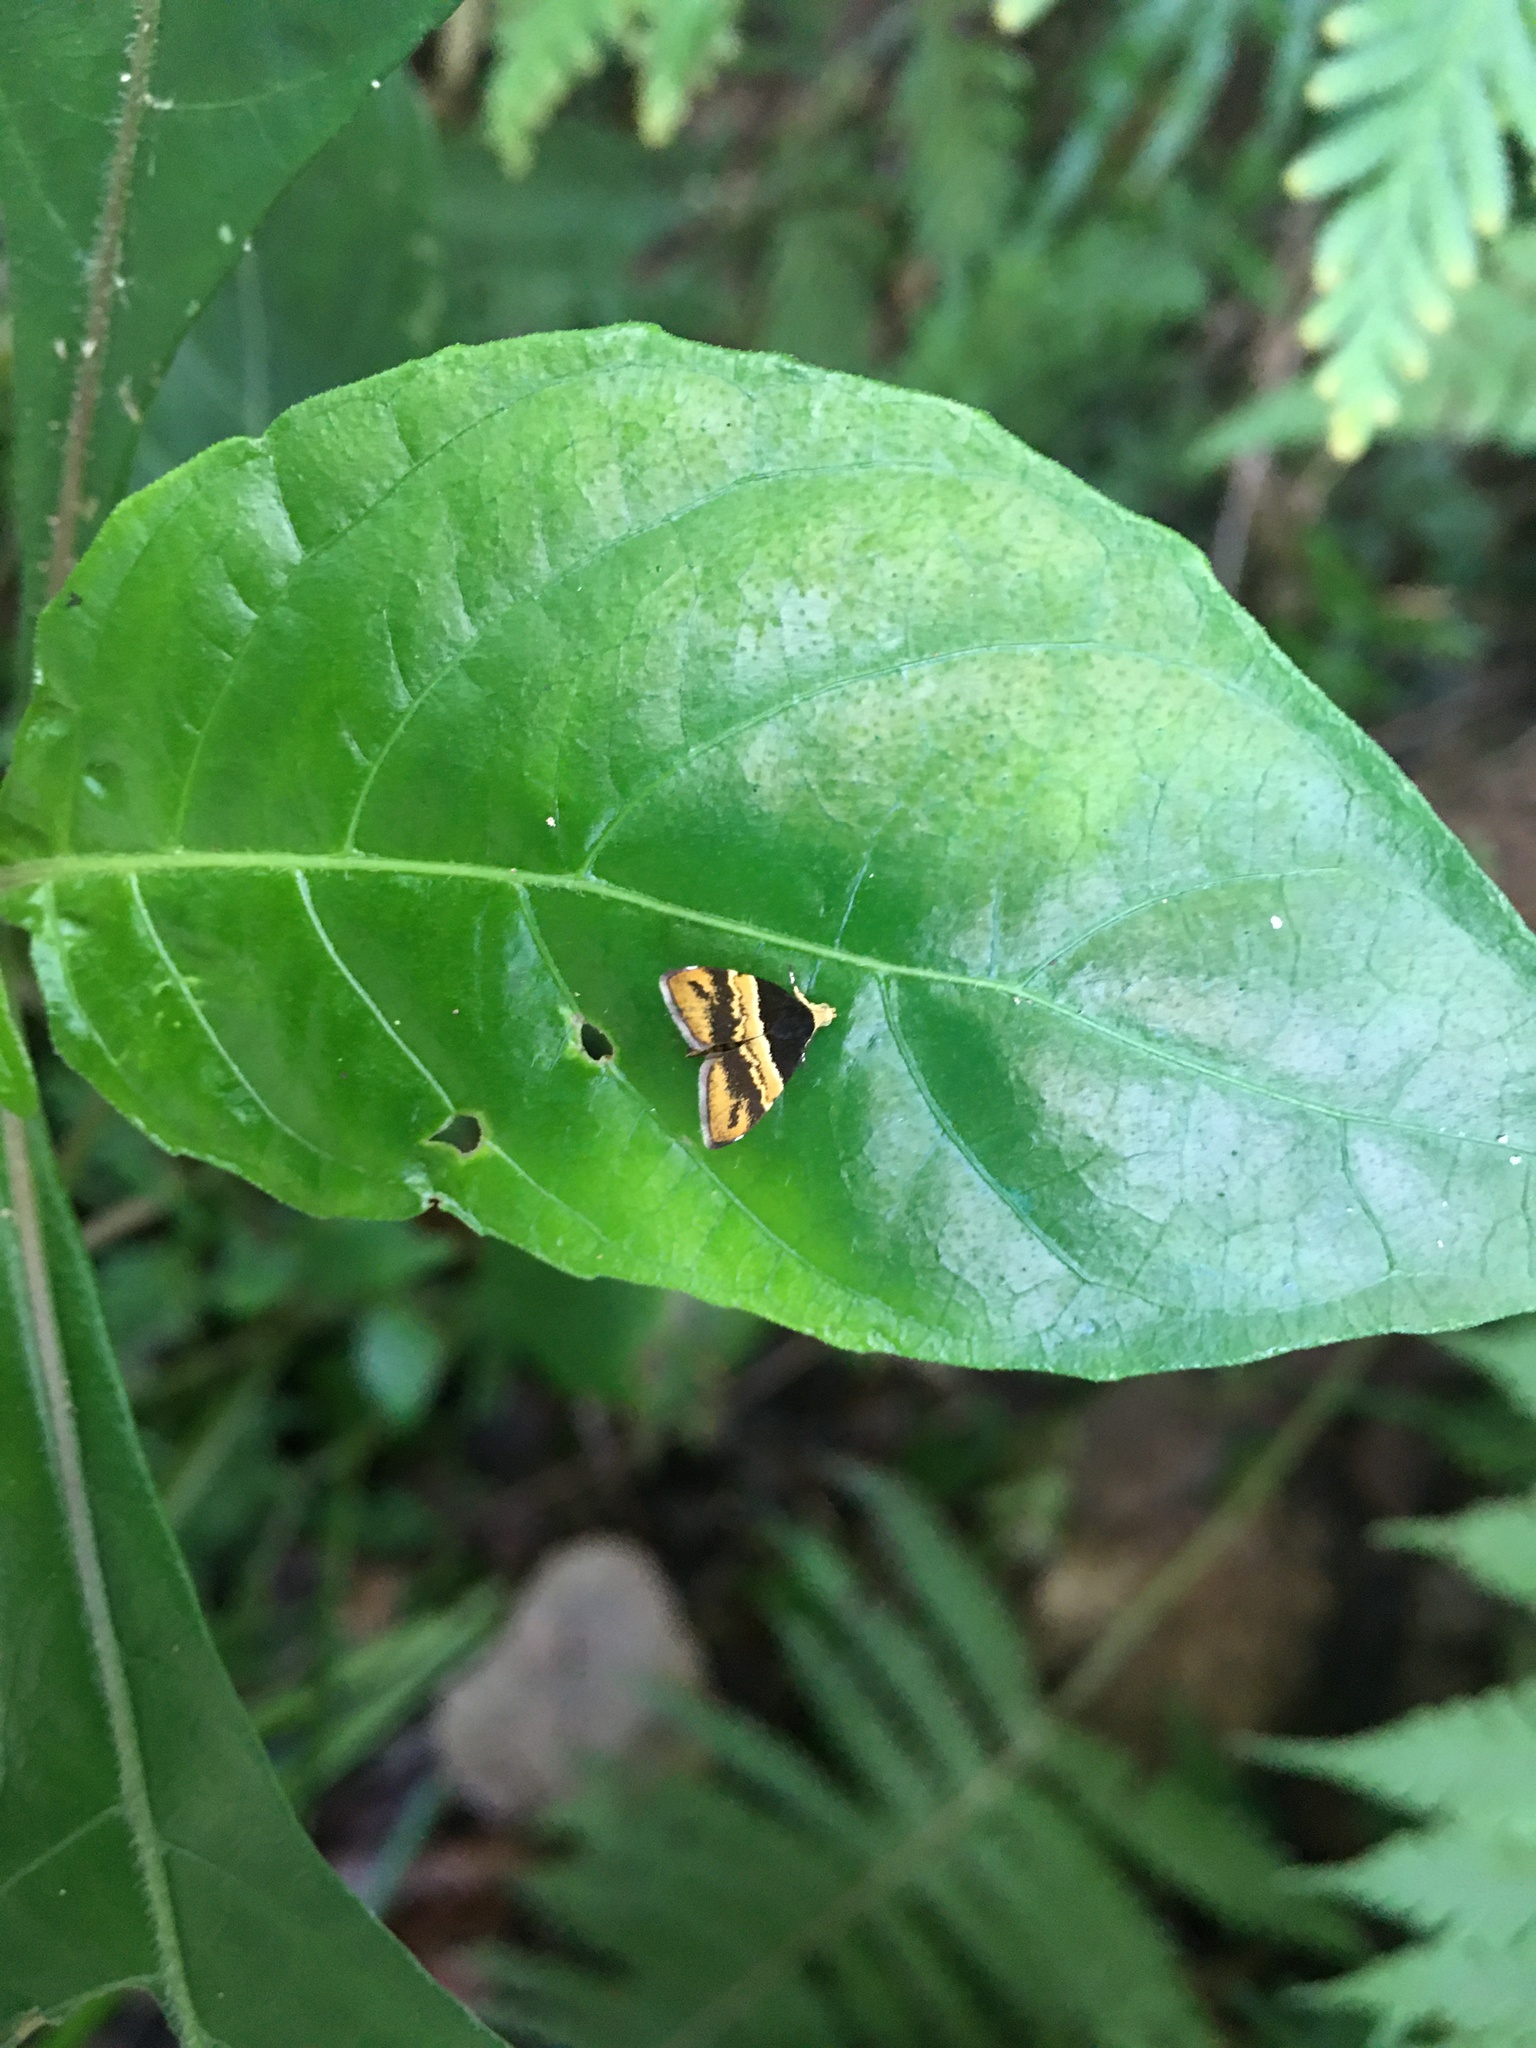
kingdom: Animalia
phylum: Arthropoda
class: Insecta
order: Lepidoptera
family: Choreutidae
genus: Choreutis
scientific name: Choreutis basalis
